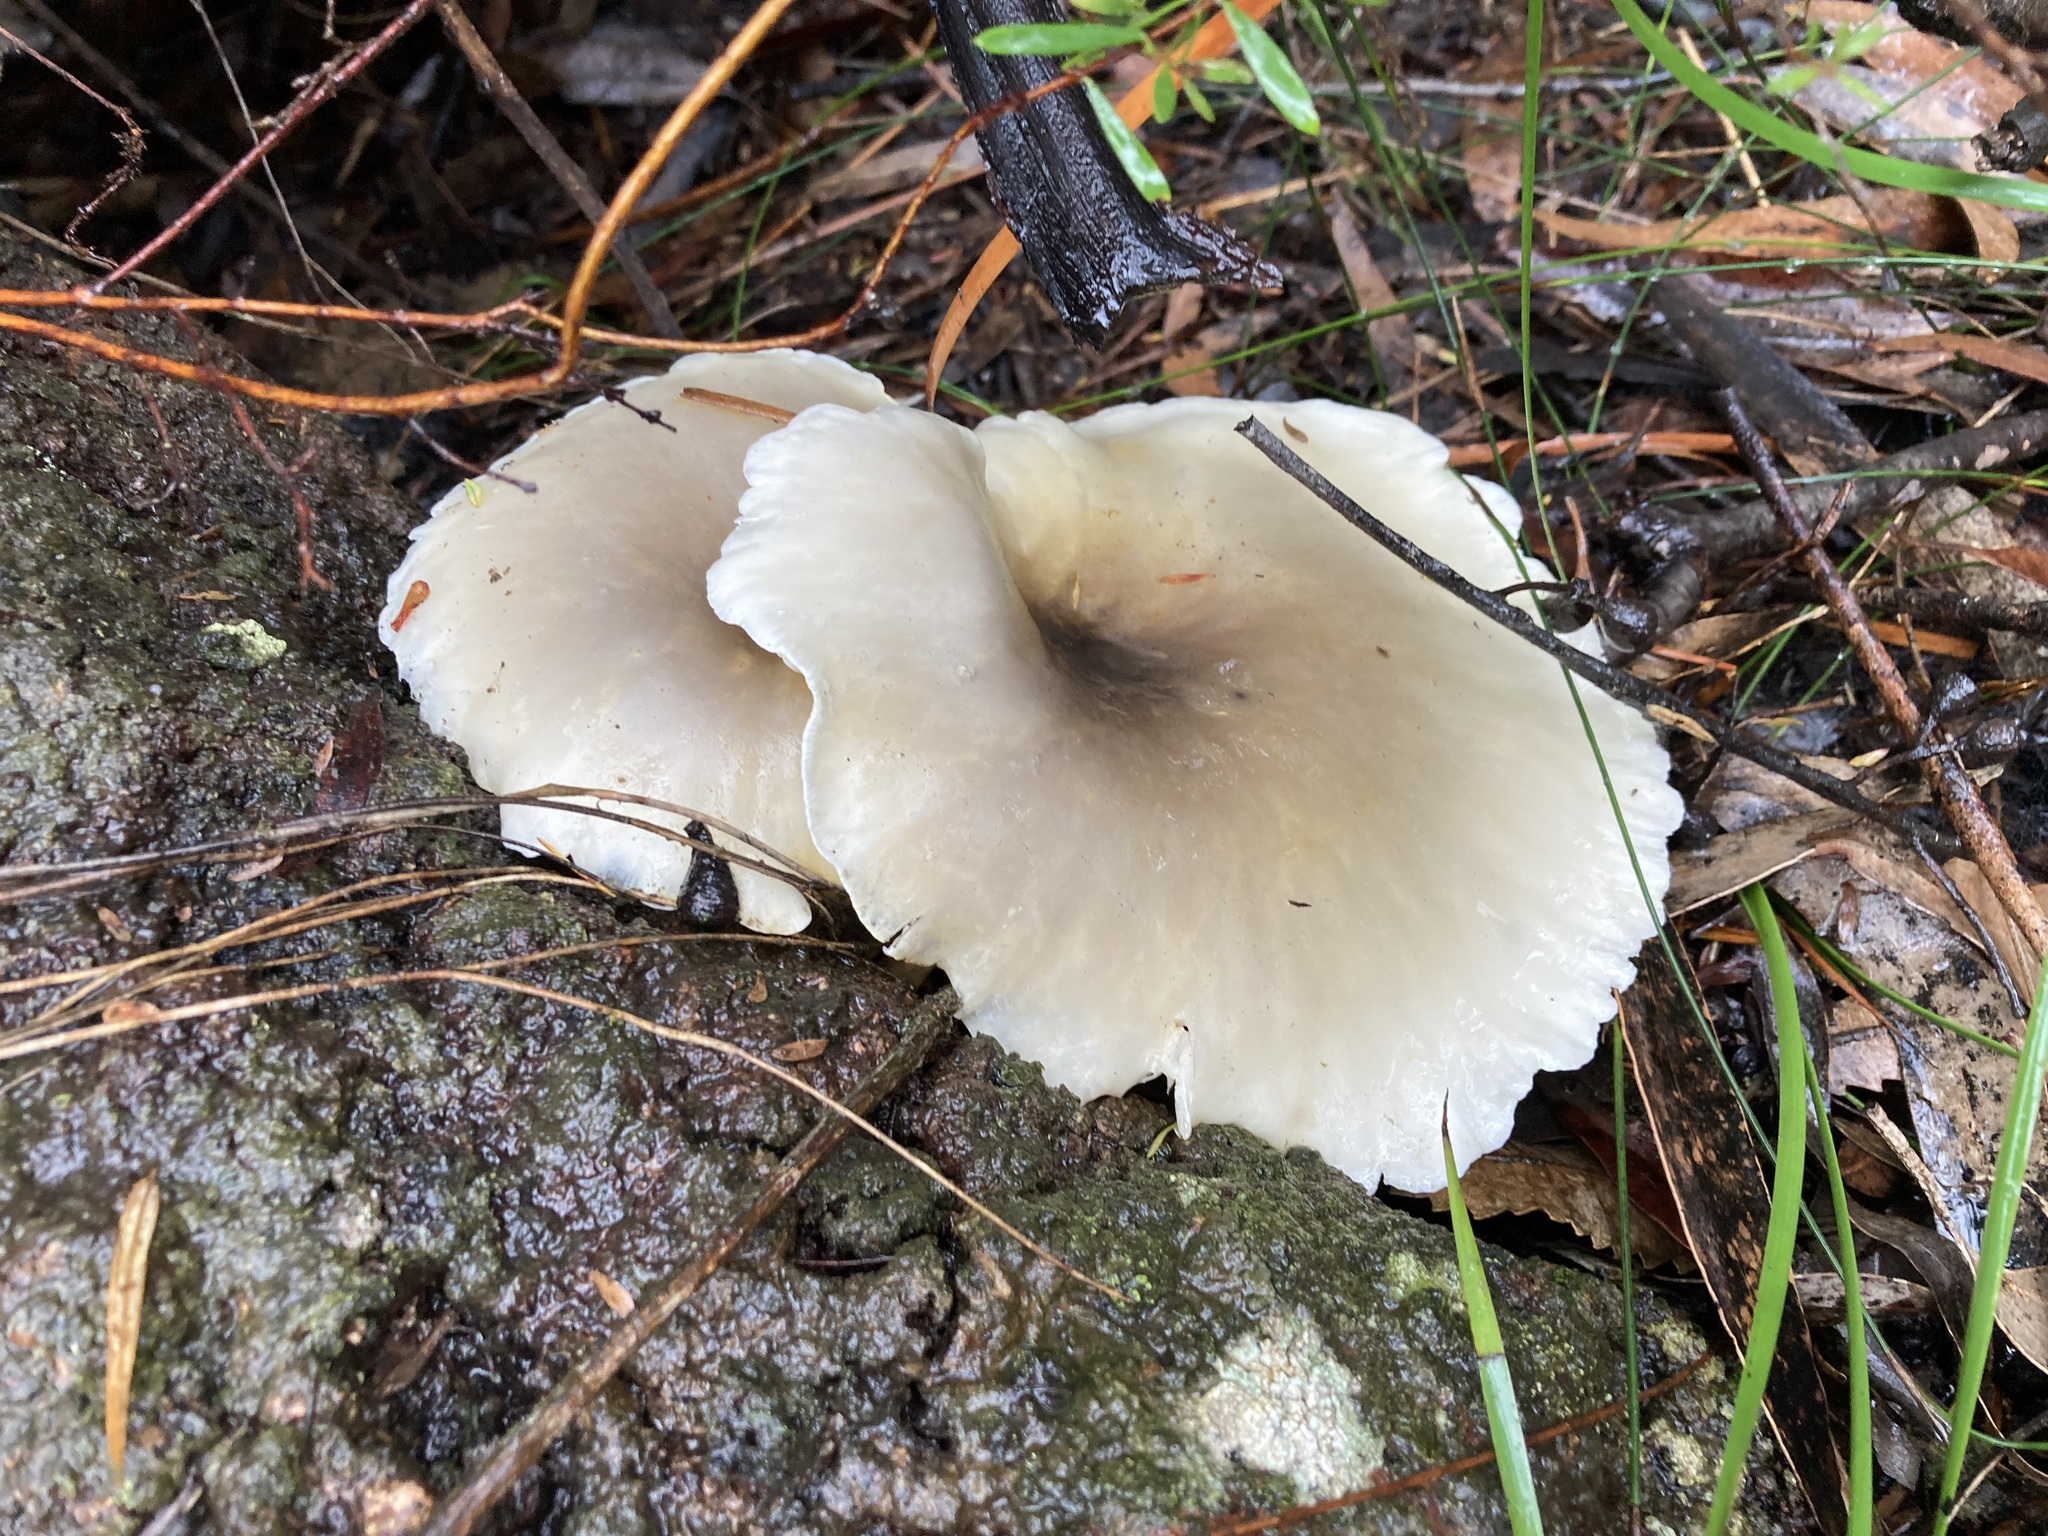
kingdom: Fungi
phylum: Basidiomycota
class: Agaricomycetes
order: Agaricales
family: Omphalotaceae
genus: Omphalotus
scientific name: Omphalotus nidiformis
